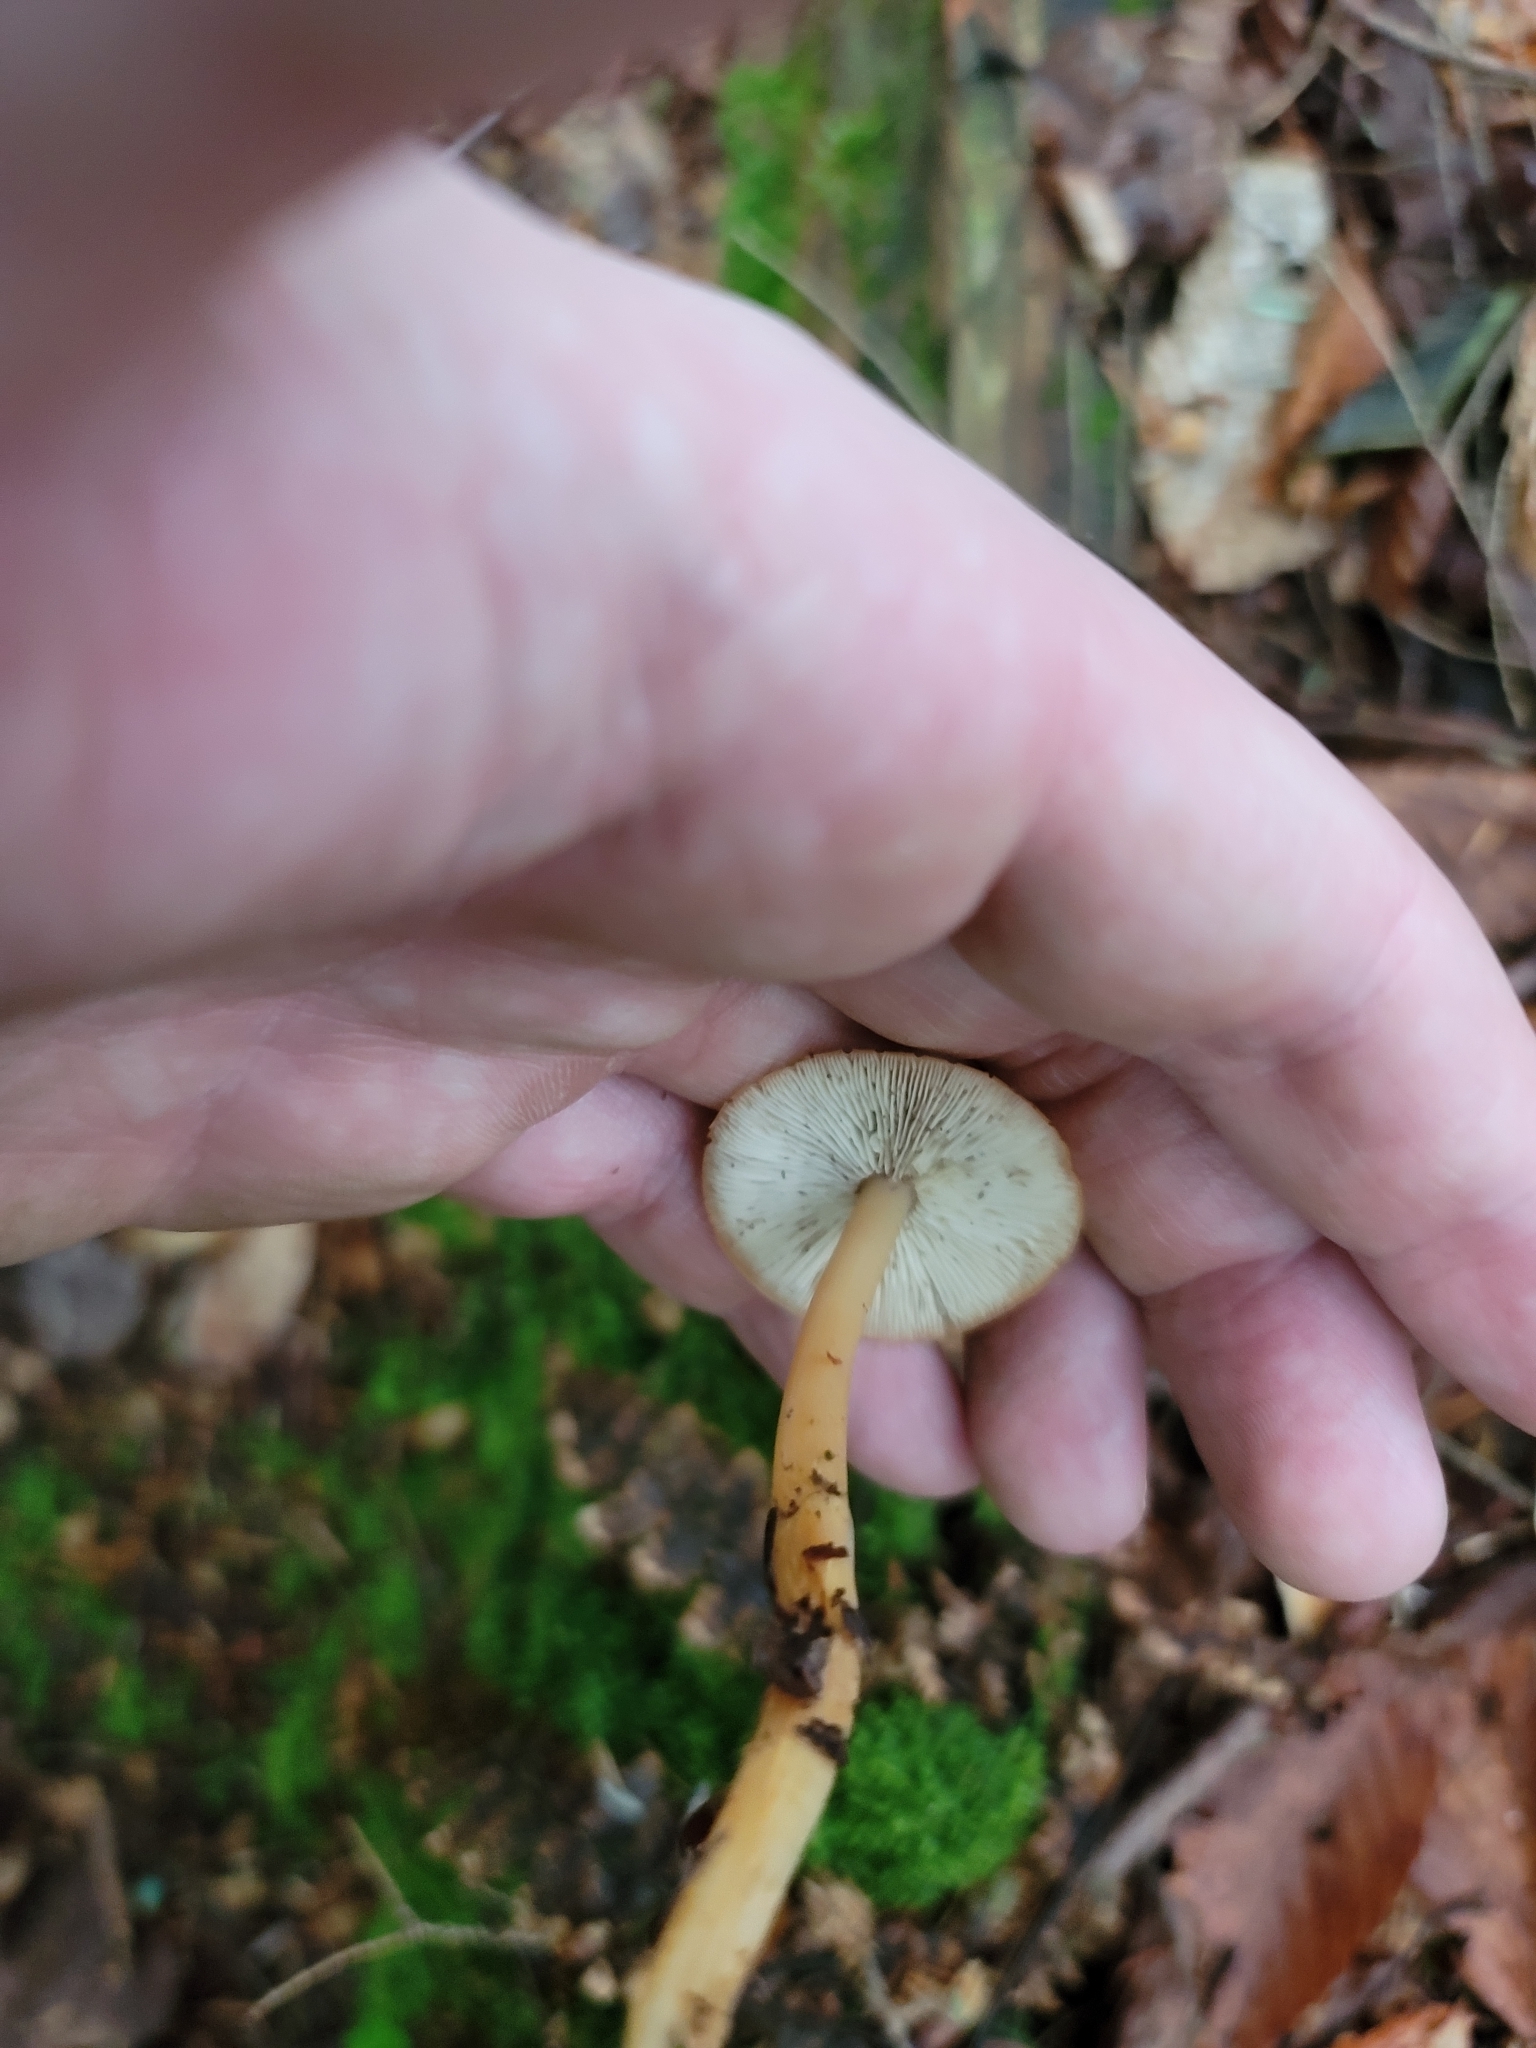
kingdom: Fungi
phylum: Basidiomycota
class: Agaricomycetes
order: Agaricales
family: Omphalotaceae
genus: Gymnopus
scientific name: Gymnopus dryophilus
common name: Penny top
